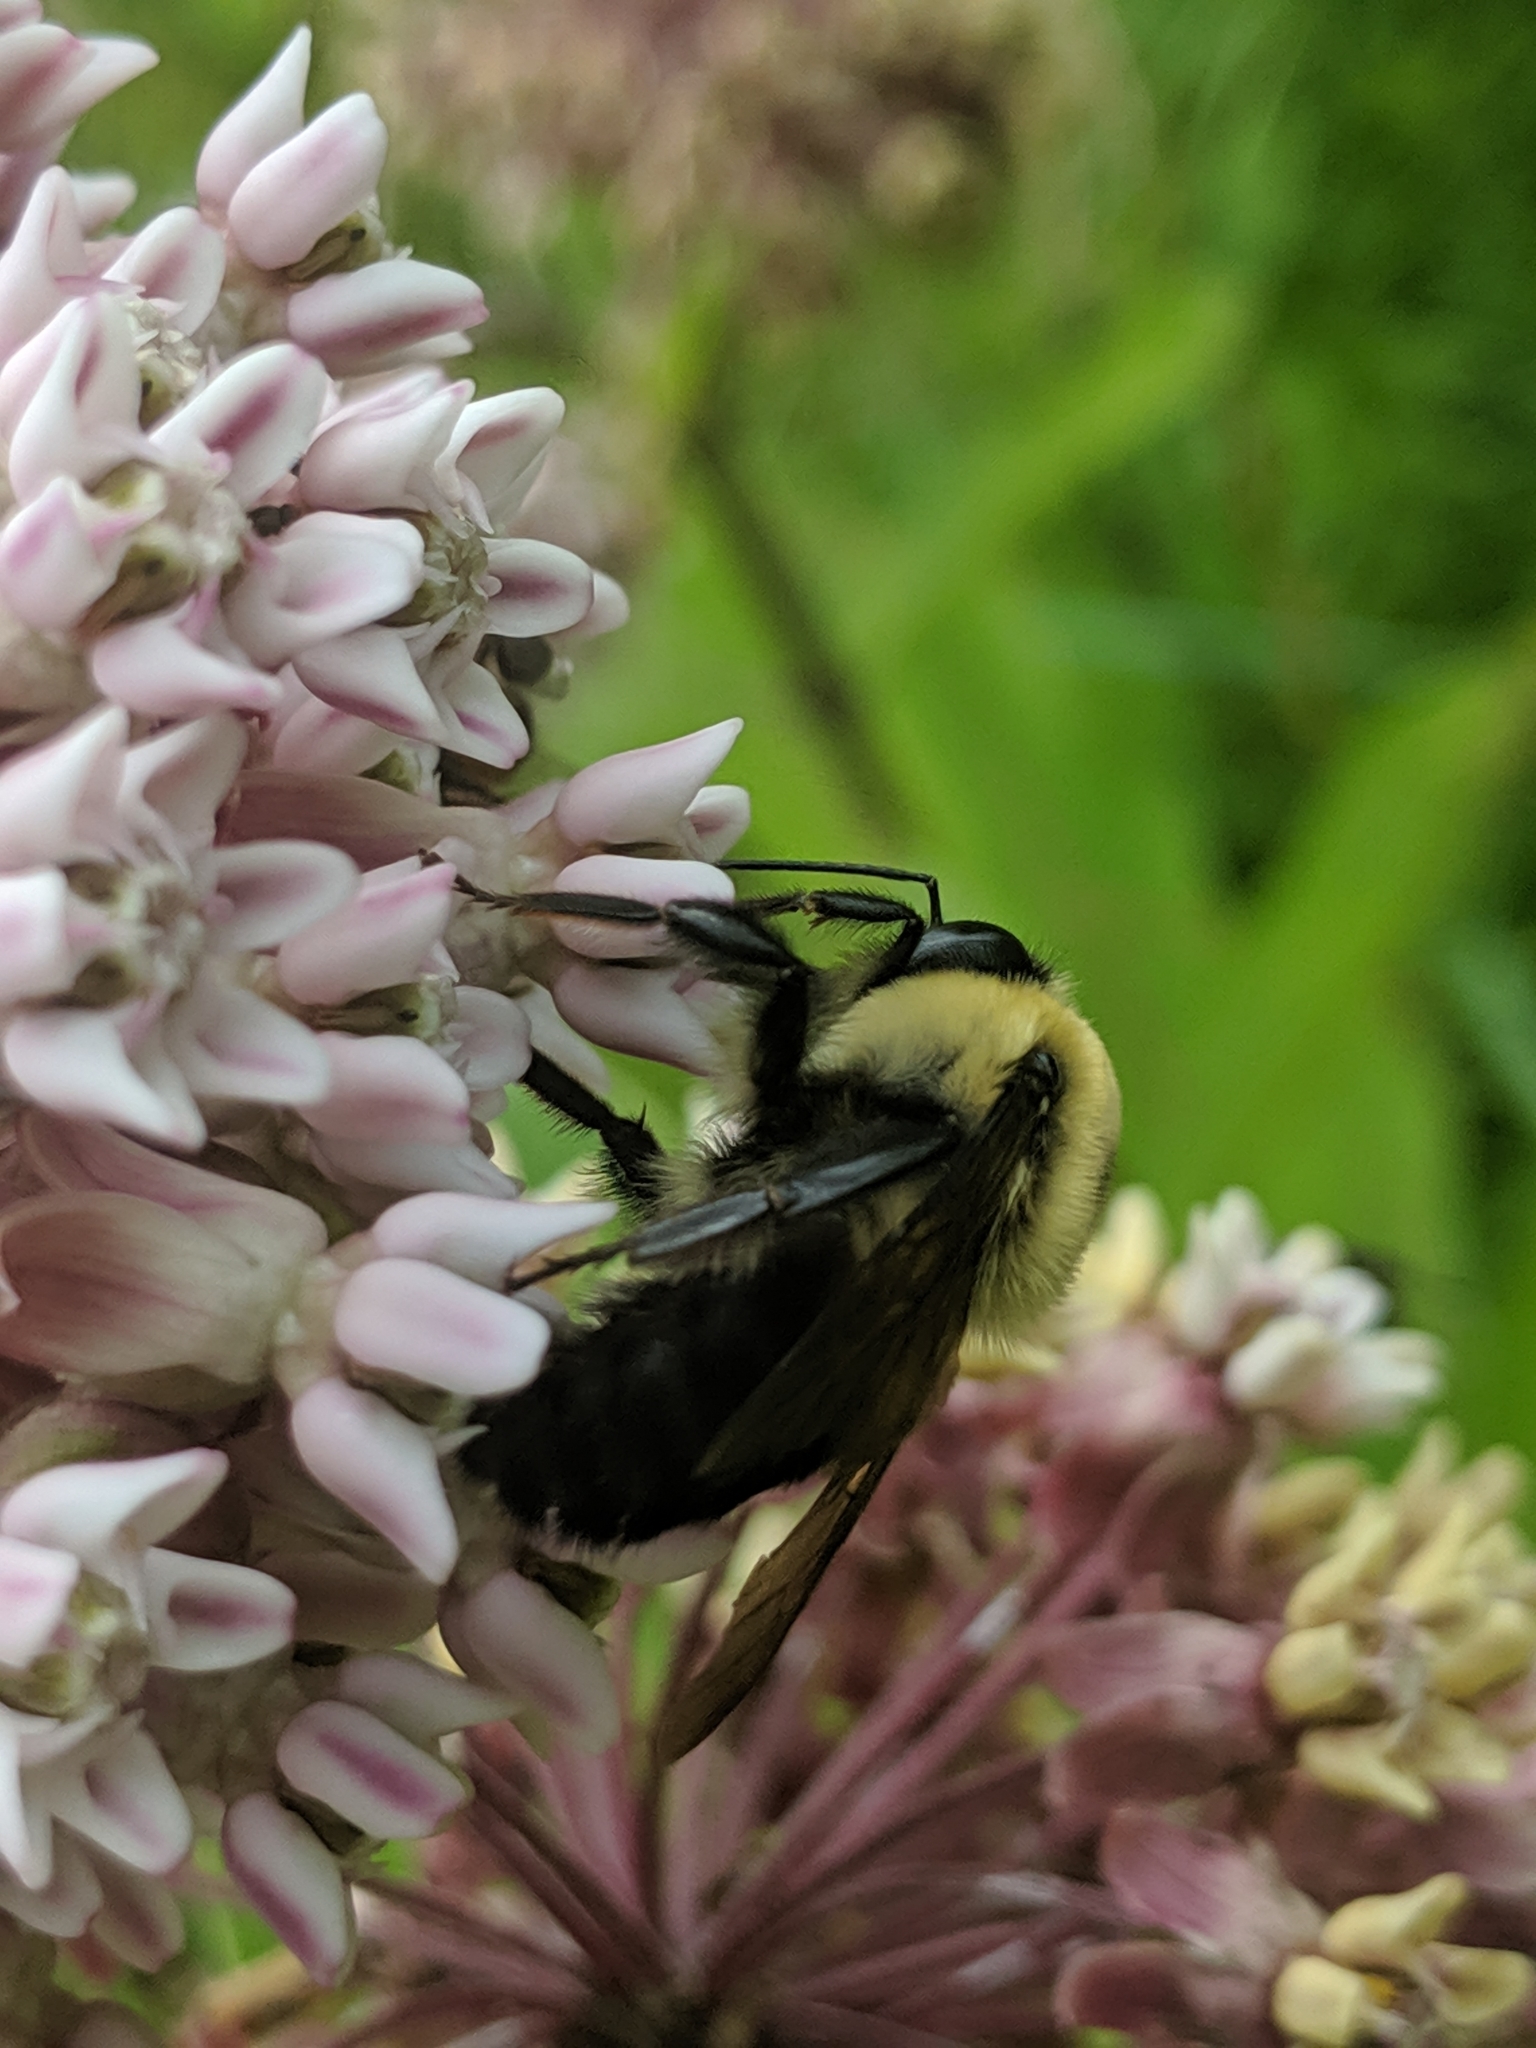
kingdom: Animalia
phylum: Arthropoda
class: Insecta
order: Hymenoptera
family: Apidae
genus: Bombus
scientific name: Bombus griseocollis
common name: Brown-belted bumble bee
